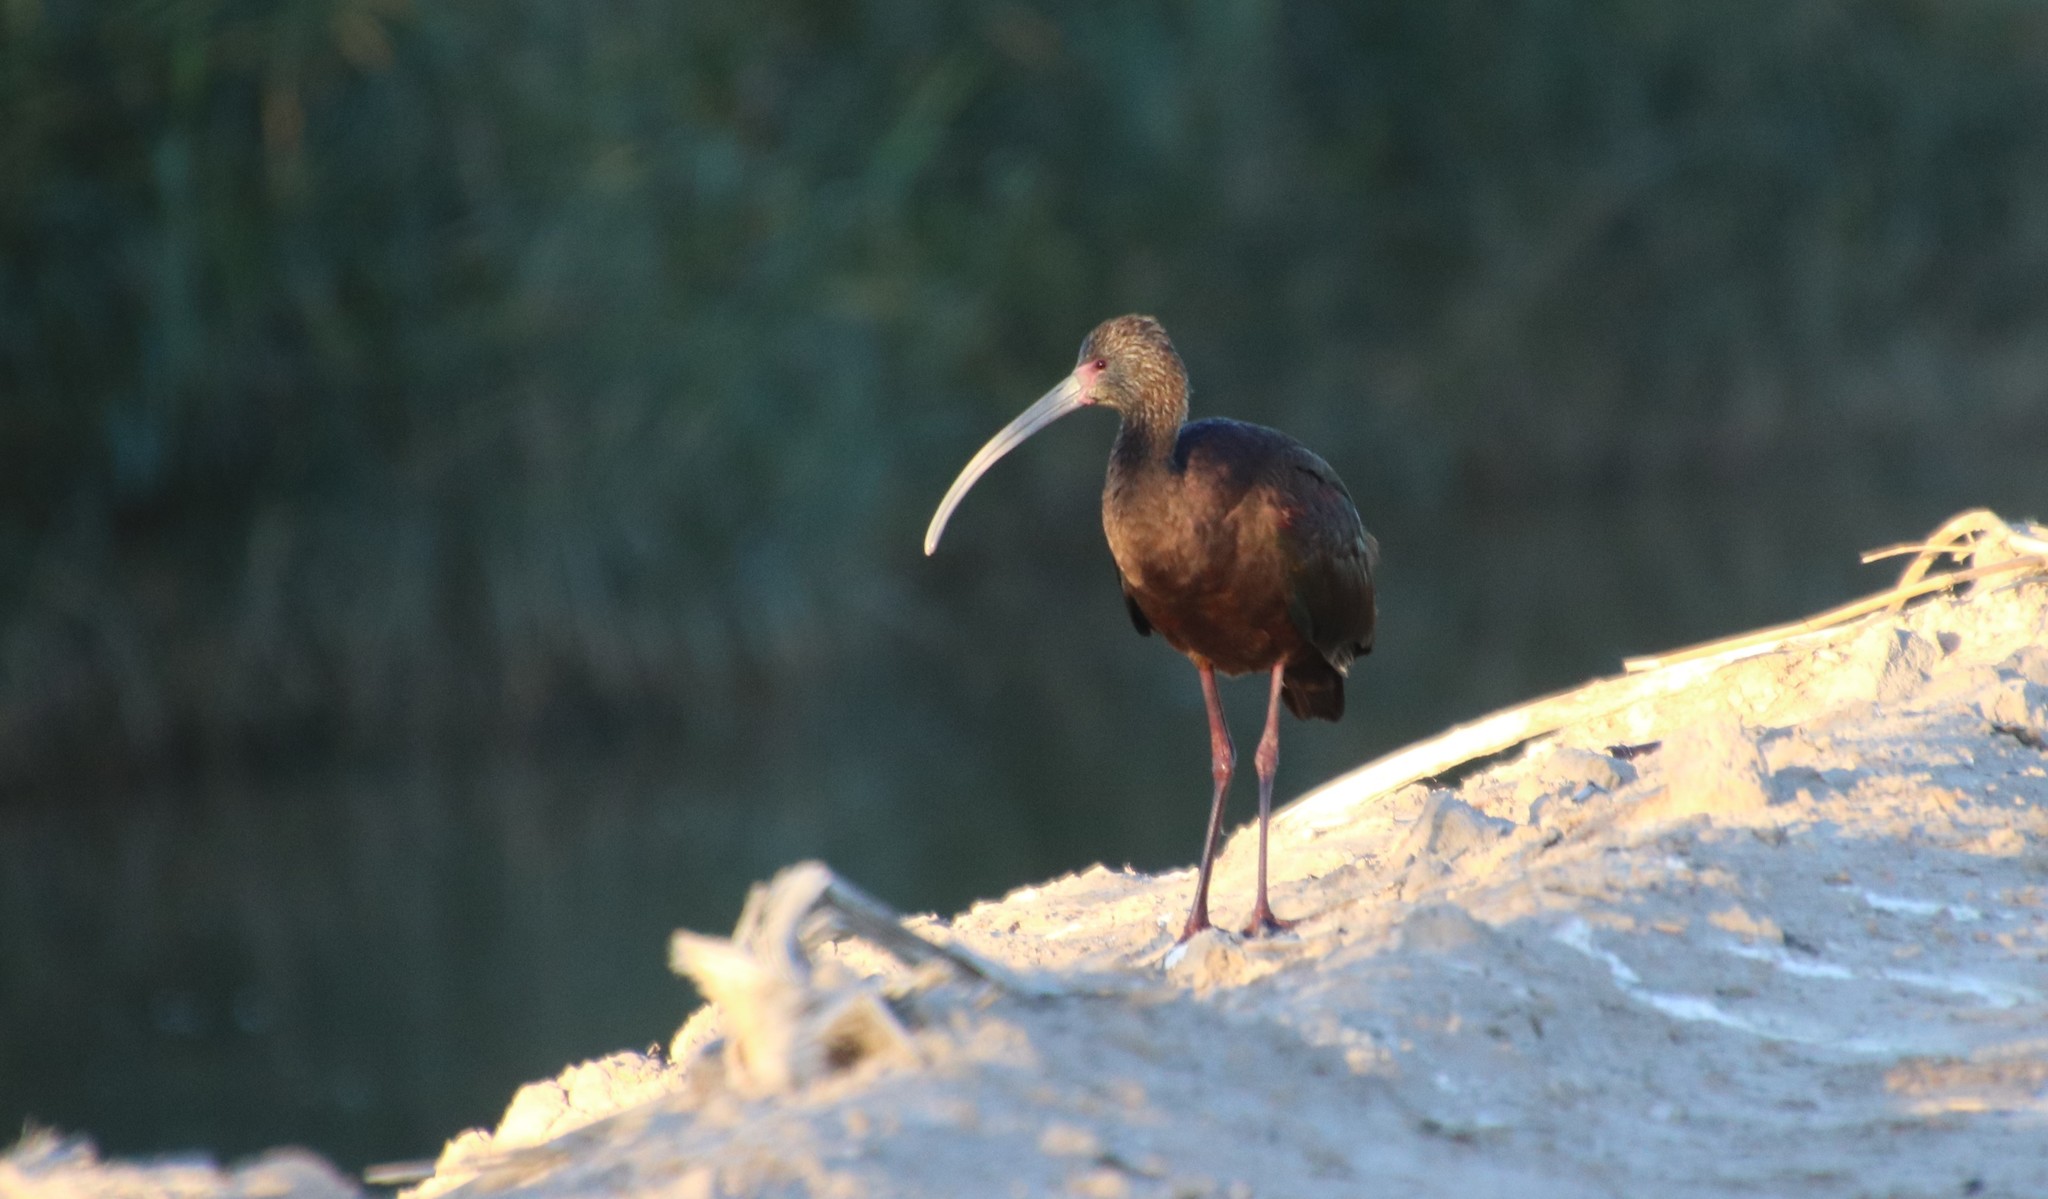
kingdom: Animalia
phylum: Chordata
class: Aves
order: Pelecaniformes
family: Threskiornithidae
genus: Plegadis
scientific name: Plegadis chihi
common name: White-faced ibis
